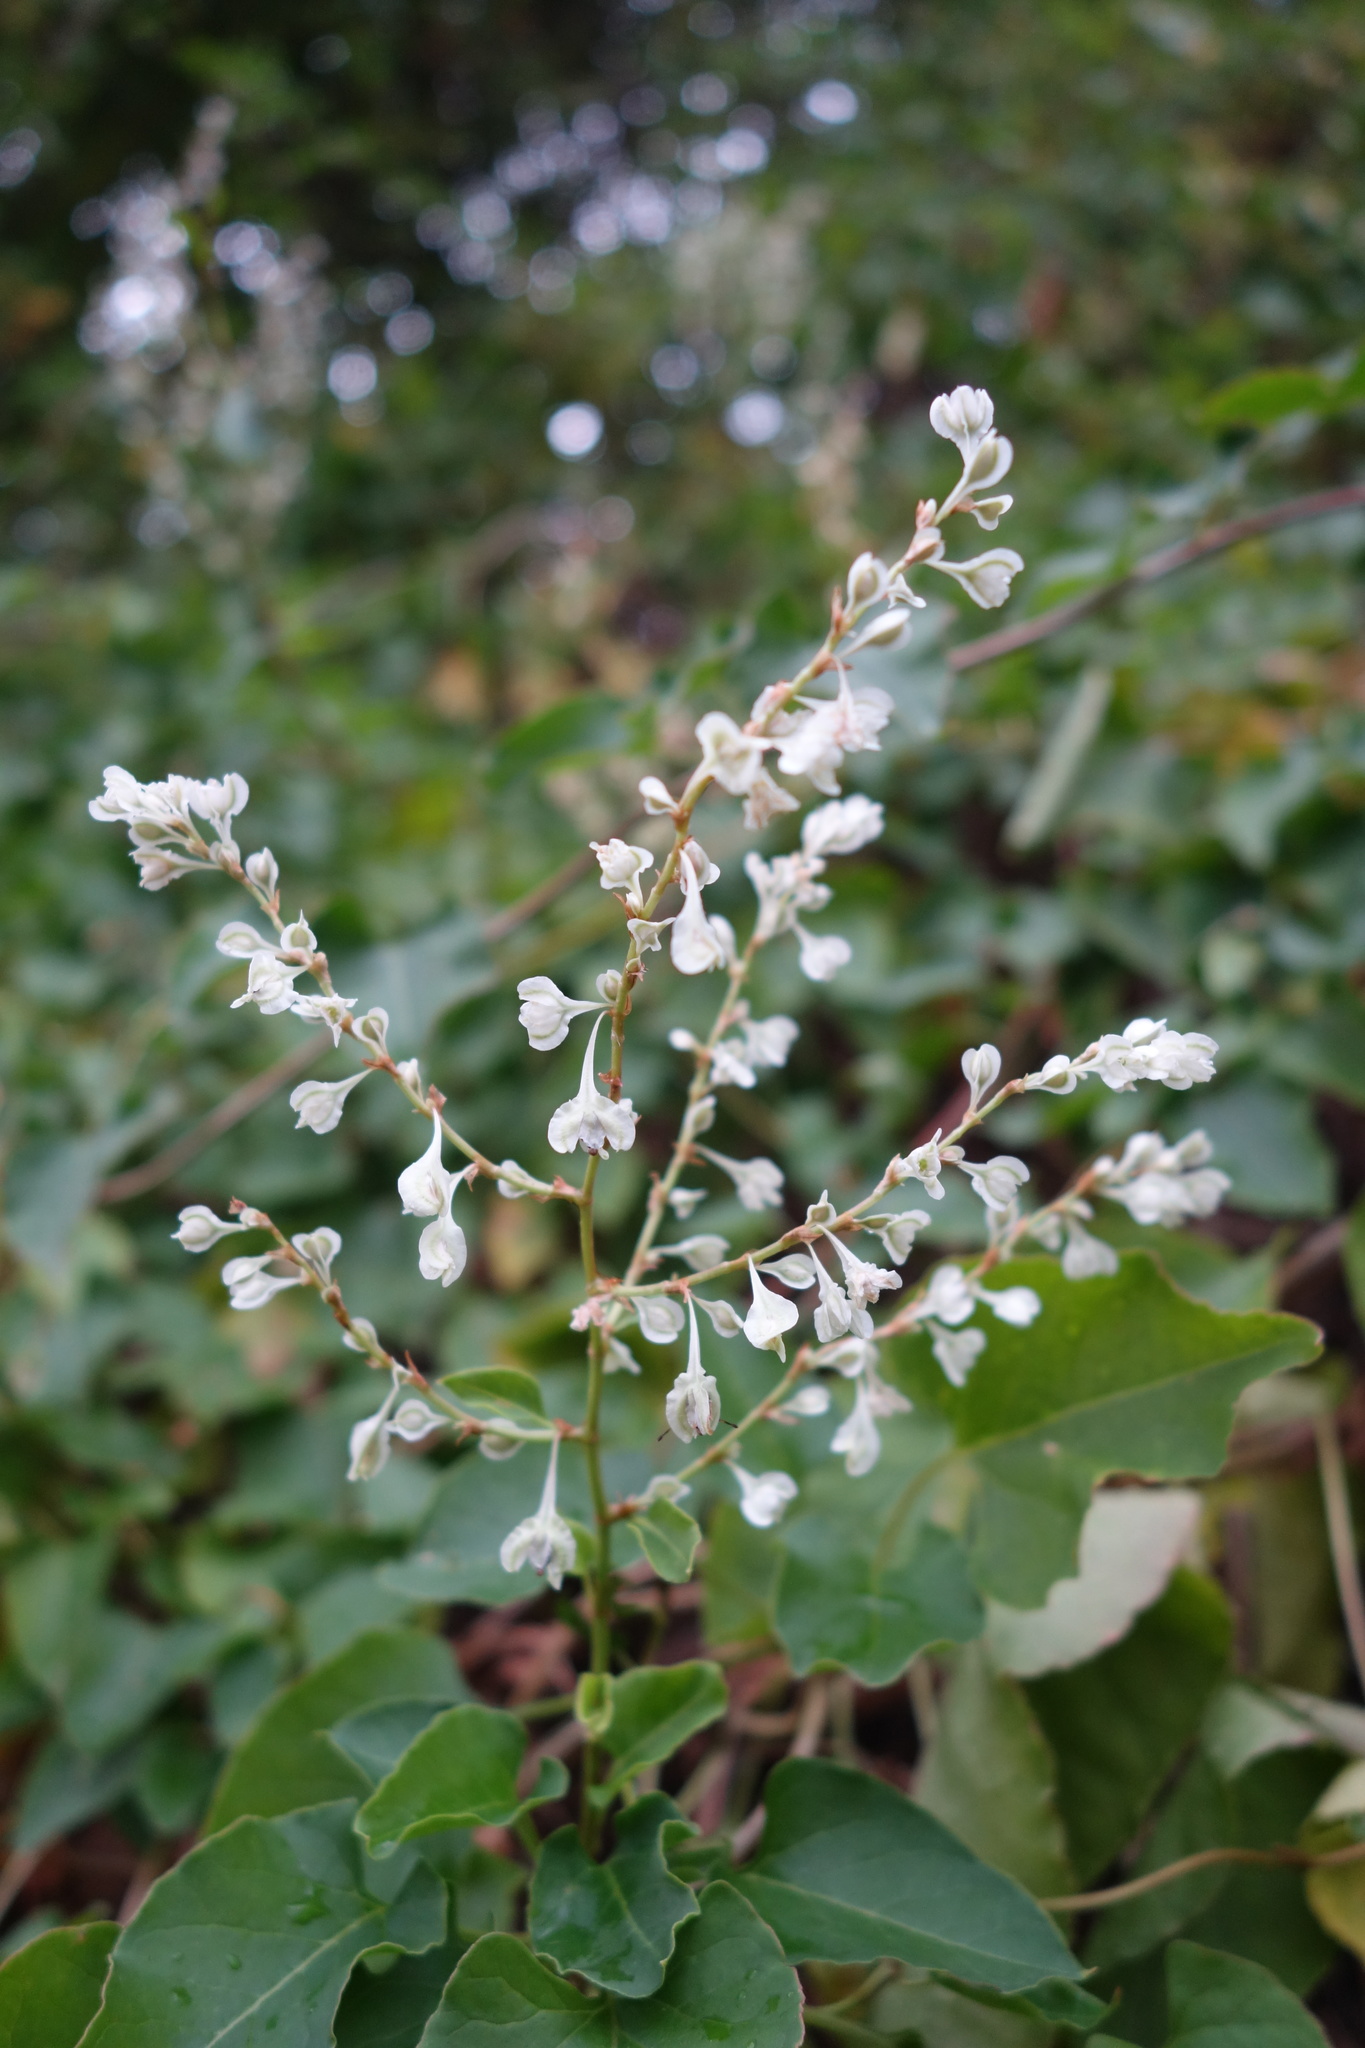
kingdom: Plantae
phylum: Tracheophyta
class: Magnoliopsida
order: Caryophyllales
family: Polygonaceae
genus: Fallopia
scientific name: Fallopia baldschuanica
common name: Russian-vine
